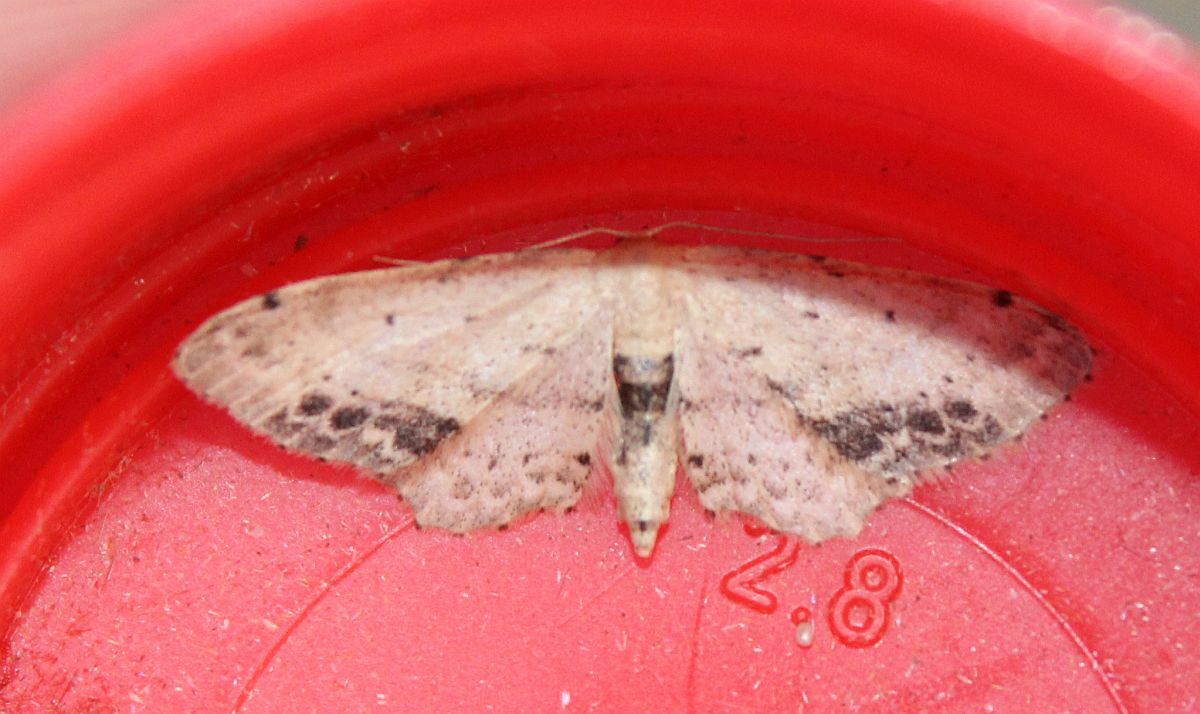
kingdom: Animalia
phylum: Arthropoda
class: Insecta
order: Lepidoptera
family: Geometridae
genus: Idaea
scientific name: Idaea dimidiata
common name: Single-dotted wave
